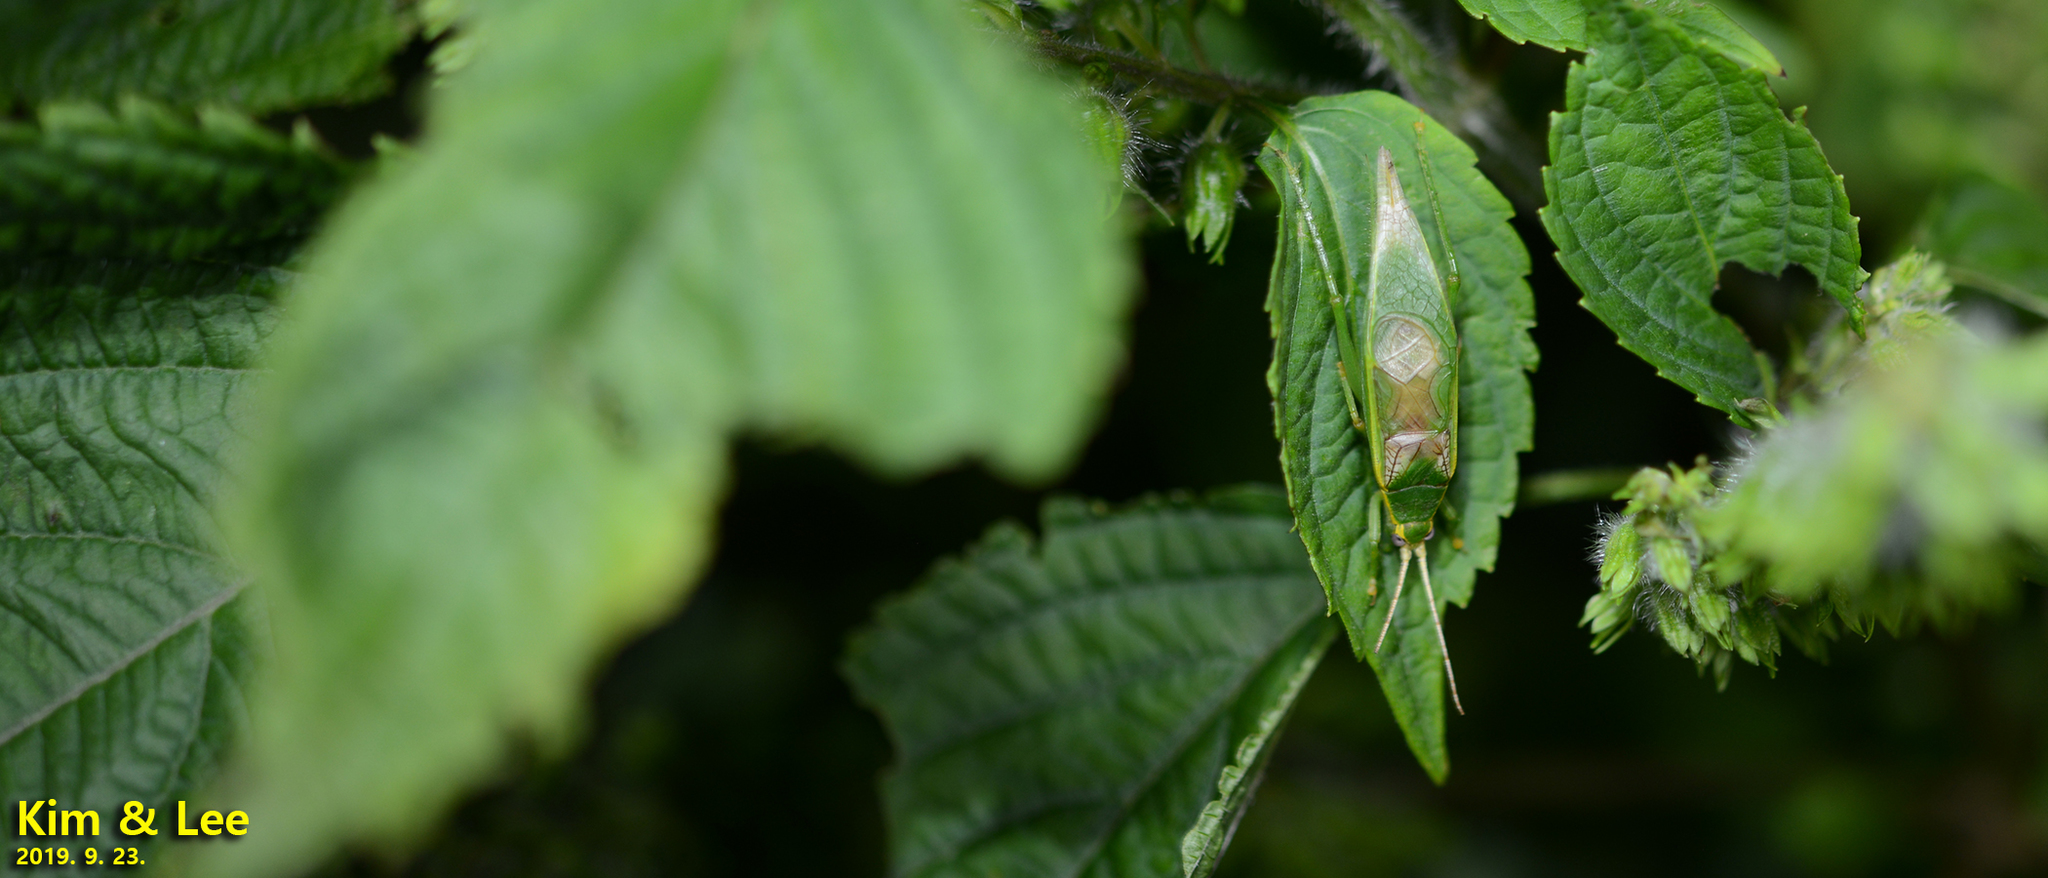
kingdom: Animalia
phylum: Arthropoda
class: Insecta
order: Orthoptera
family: Gryllidae
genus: Truljalia
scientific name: Truljalia hibinonis
